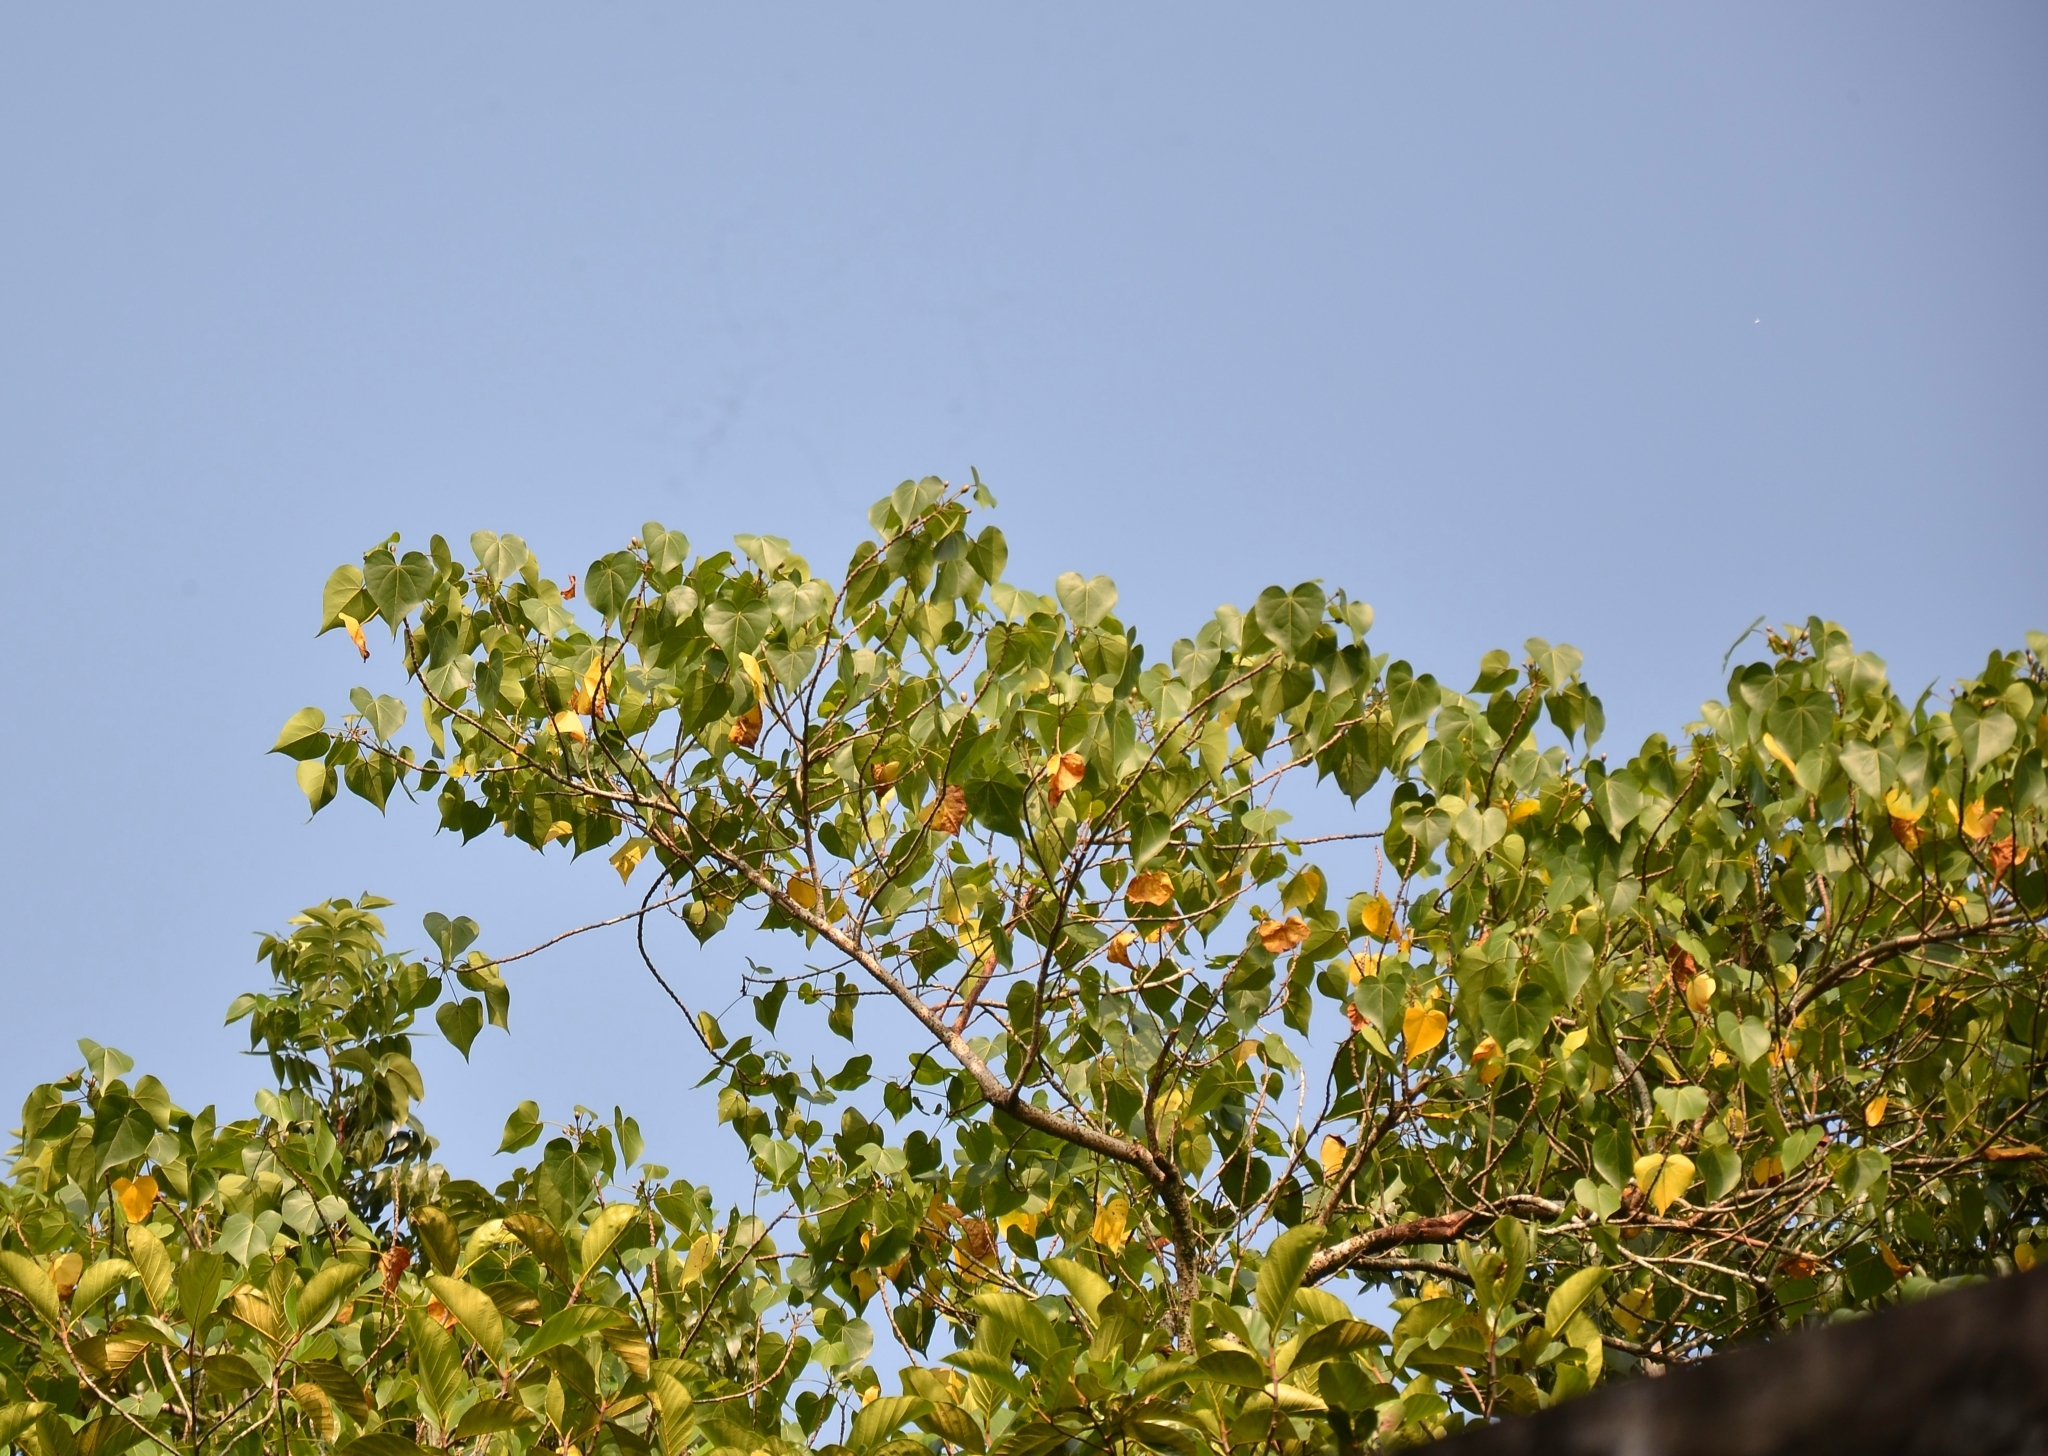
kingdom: Plantae
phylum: Tracheophyta
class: Magnoliopsida
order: Malvales
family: Malvaceae
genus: Thespesia
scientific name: Thespesia populnea
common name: Seaside mahoe
